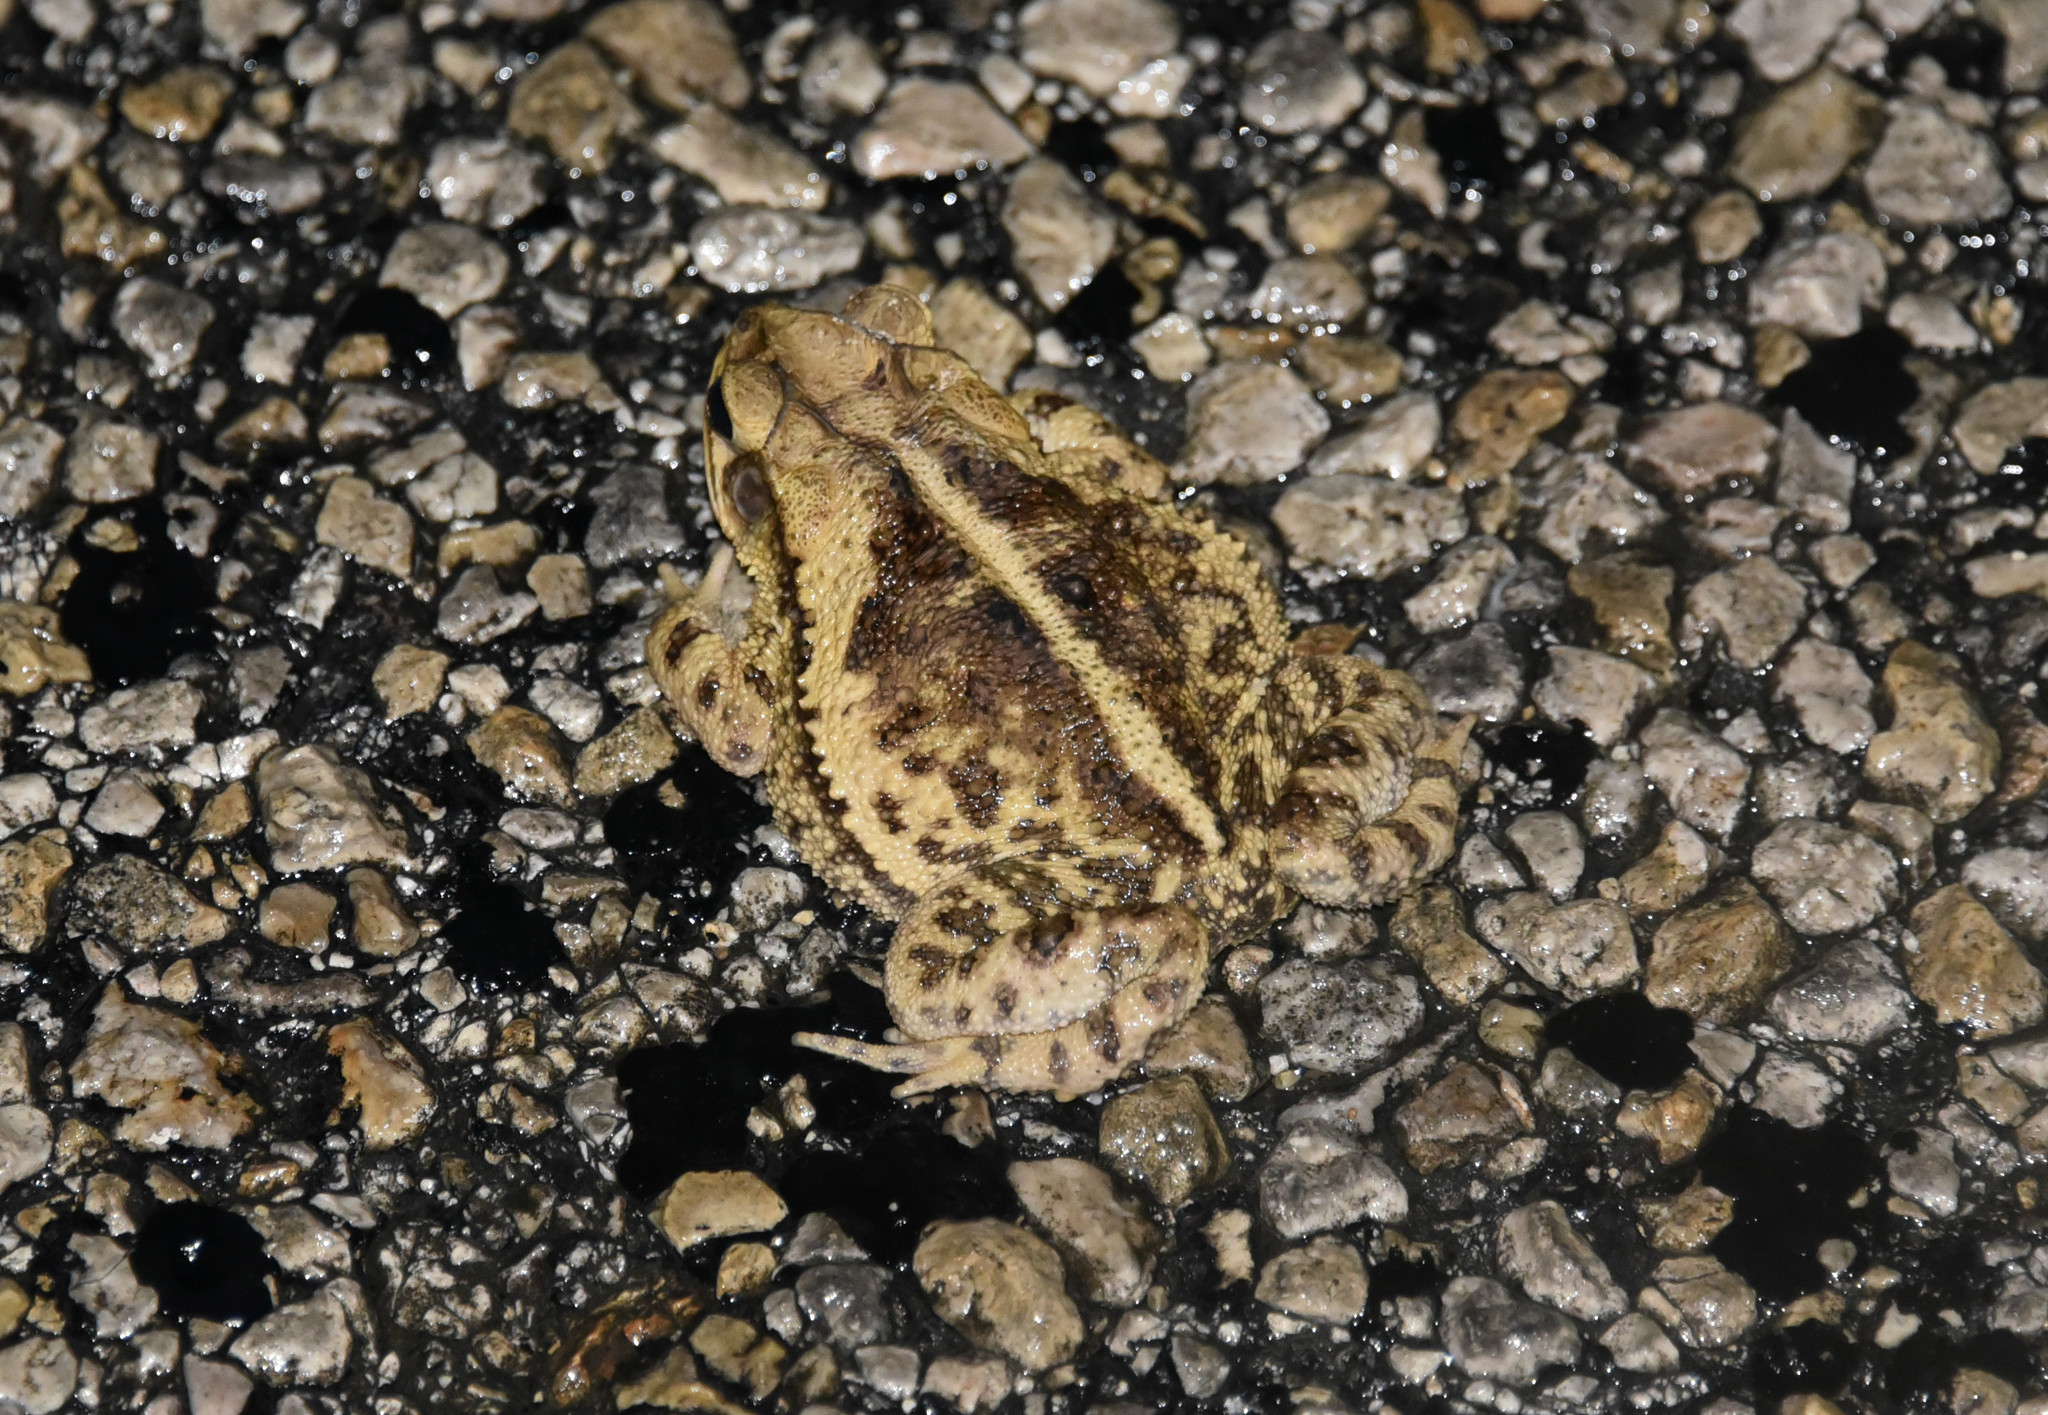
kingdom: Animalia
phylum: Chordata
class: Amphibia
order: Anura
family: Bufonidae
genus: Incilius
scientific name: Incilius nebulifer
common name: Gulf coast toad
